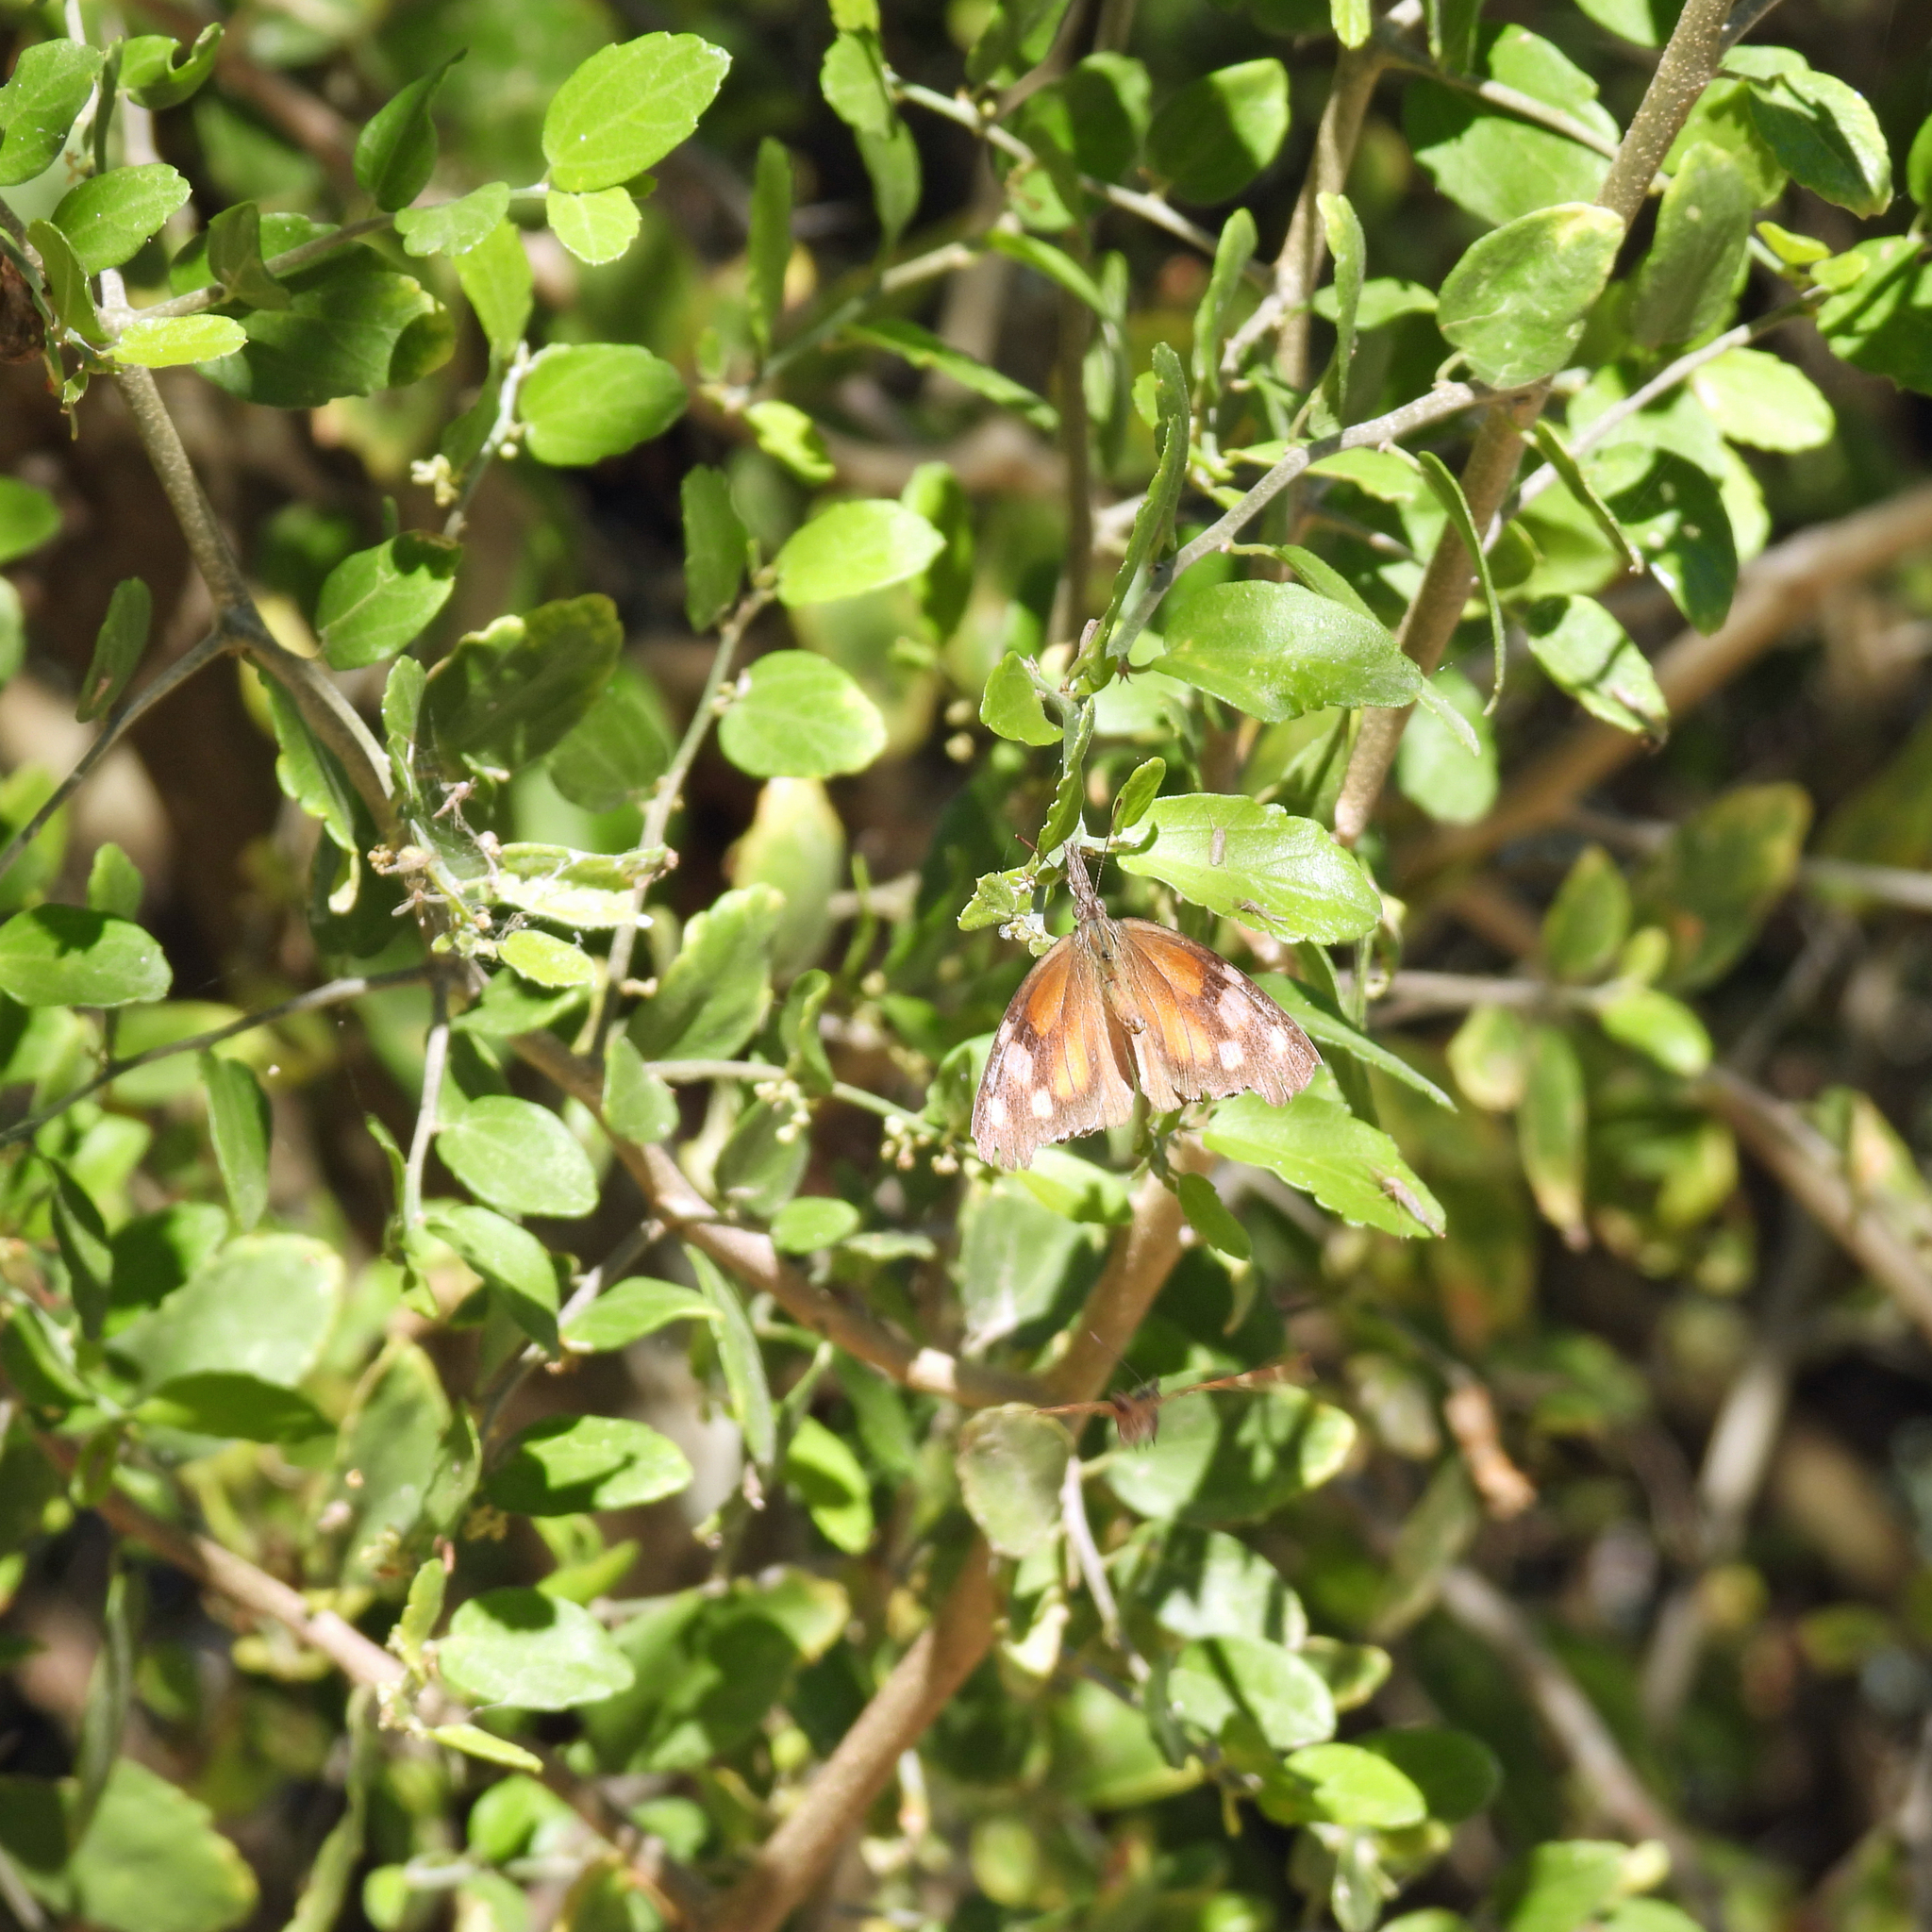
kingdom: Animalia
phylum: Arthropoda
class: Insecta
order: Lepidoptera
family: Nymphalidae
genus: Libytheana
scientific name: Libytheana carinenta
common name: American snout
